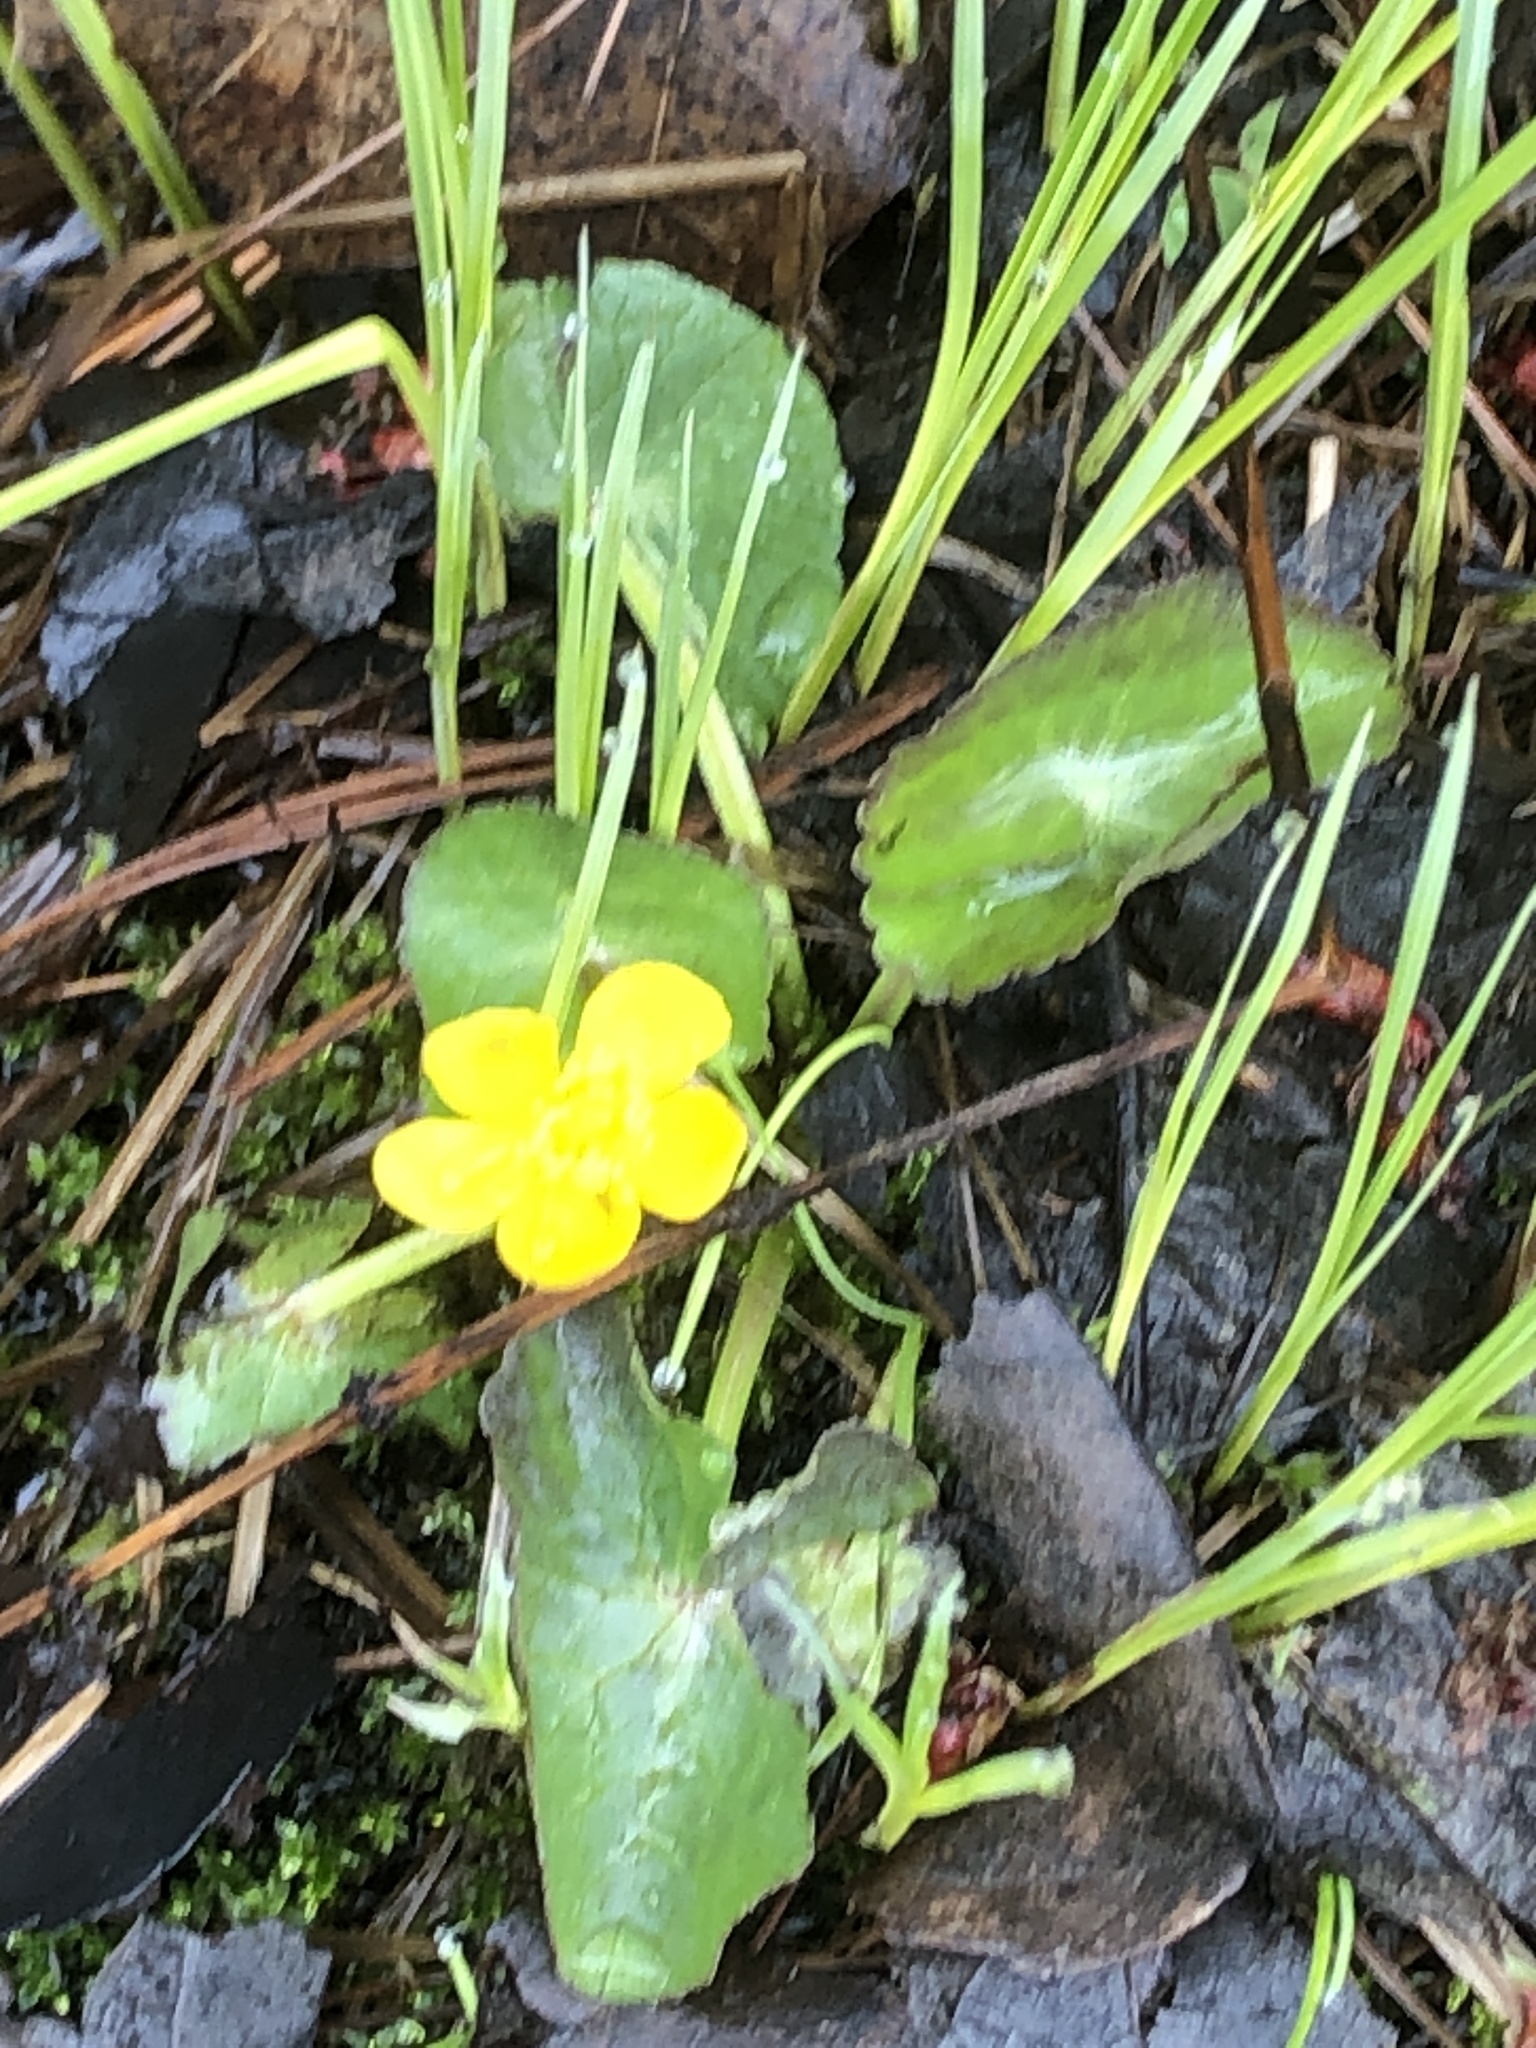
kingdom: Plantae
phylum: Tracheophyta
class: Magnoliopsida
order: Ranunculales
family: Ranunculaceae
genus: Caltha
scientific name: Caltha palustris
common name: Marsh marigold
